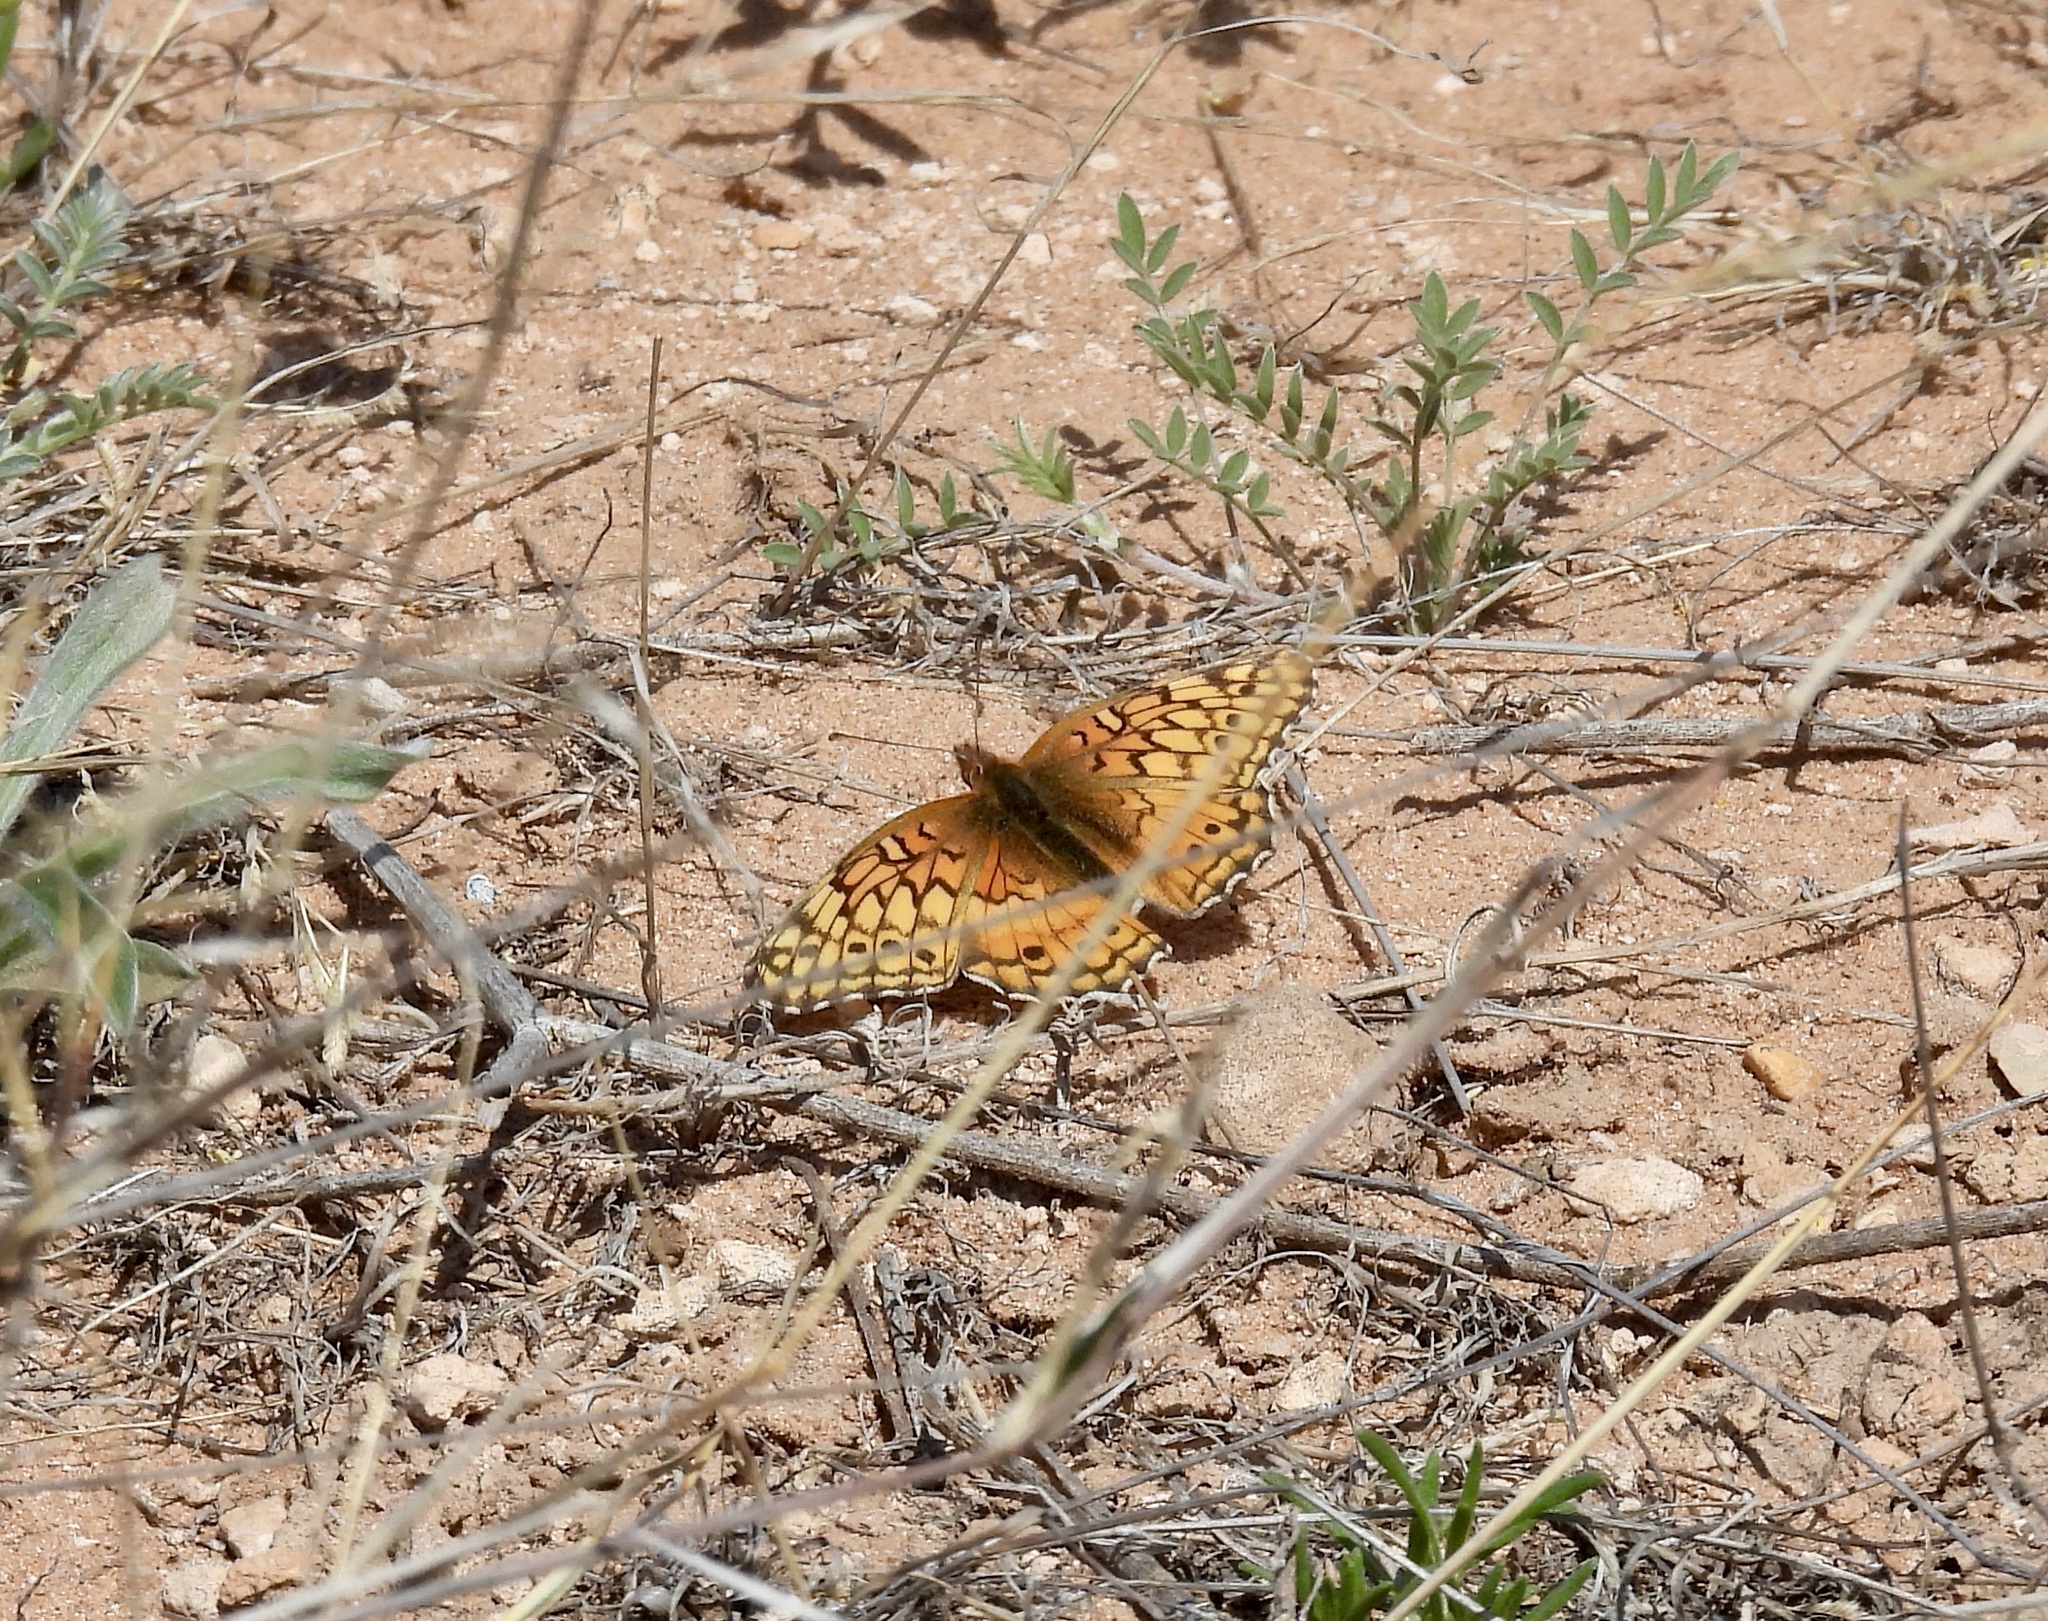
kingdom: Animalia
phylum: Arthropoda
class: Insecta
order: Lepidoptera
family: Nymphalidae
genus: Euptoieta
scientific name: Euptoieta claudia
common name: Variegated fritillary
